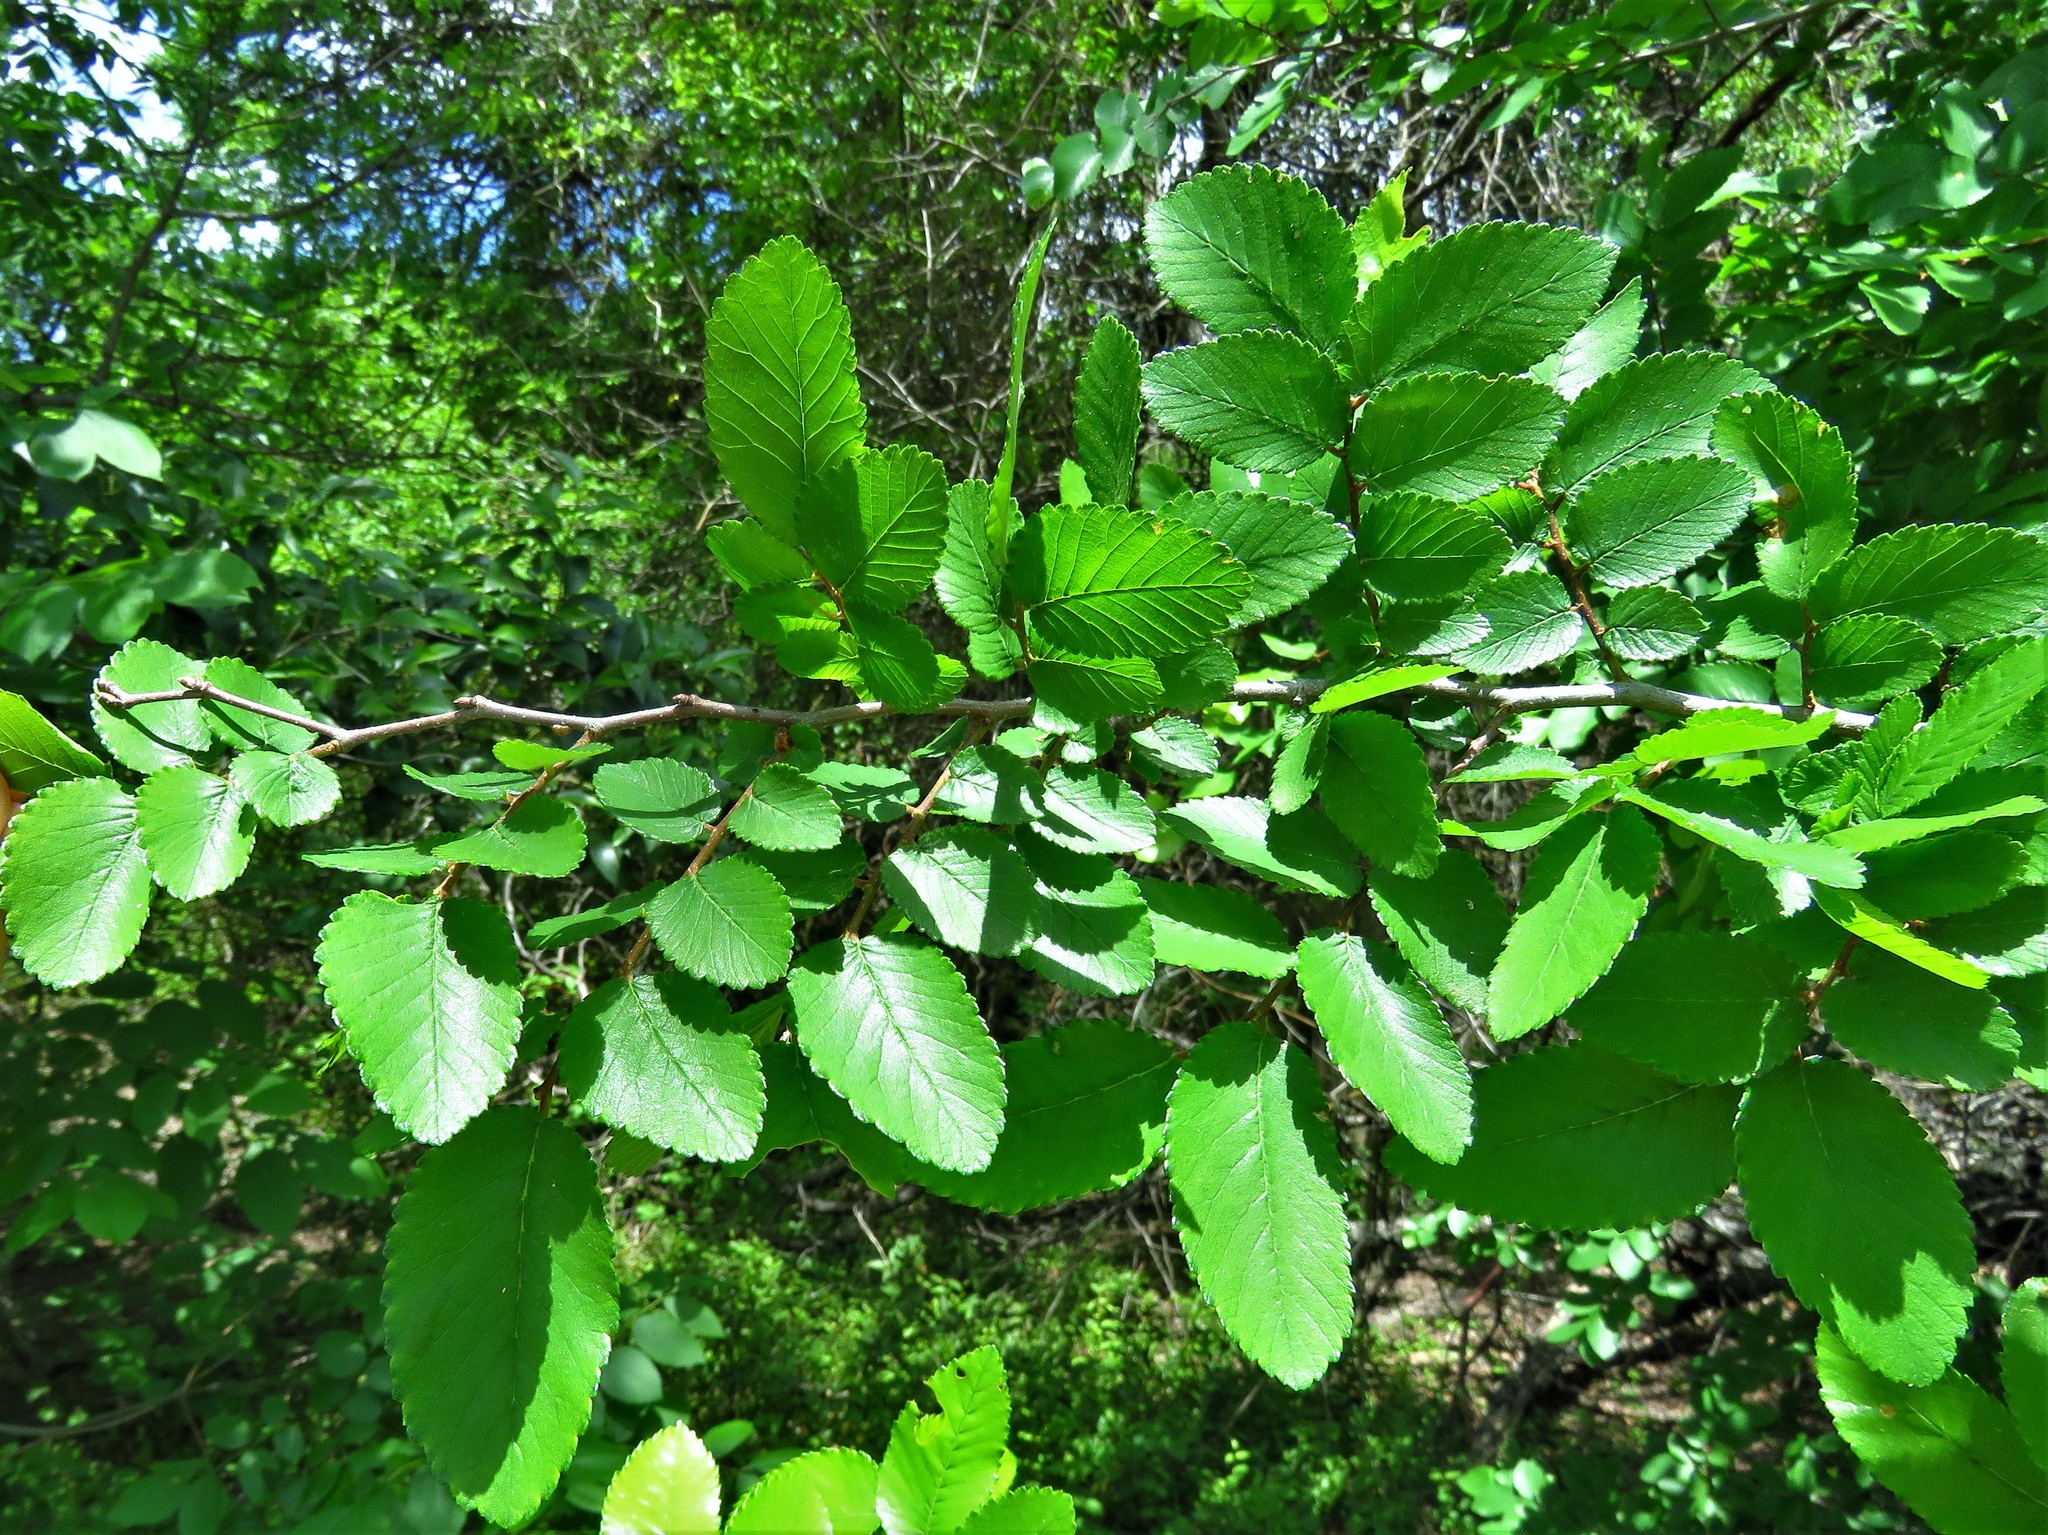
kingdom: Plantae
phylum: Tracheophyta
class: Magnoliopsida
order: Rosales
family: Ulmaceae
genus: Ulmus
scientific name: Ulmus crassifolia
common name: Basket elm
